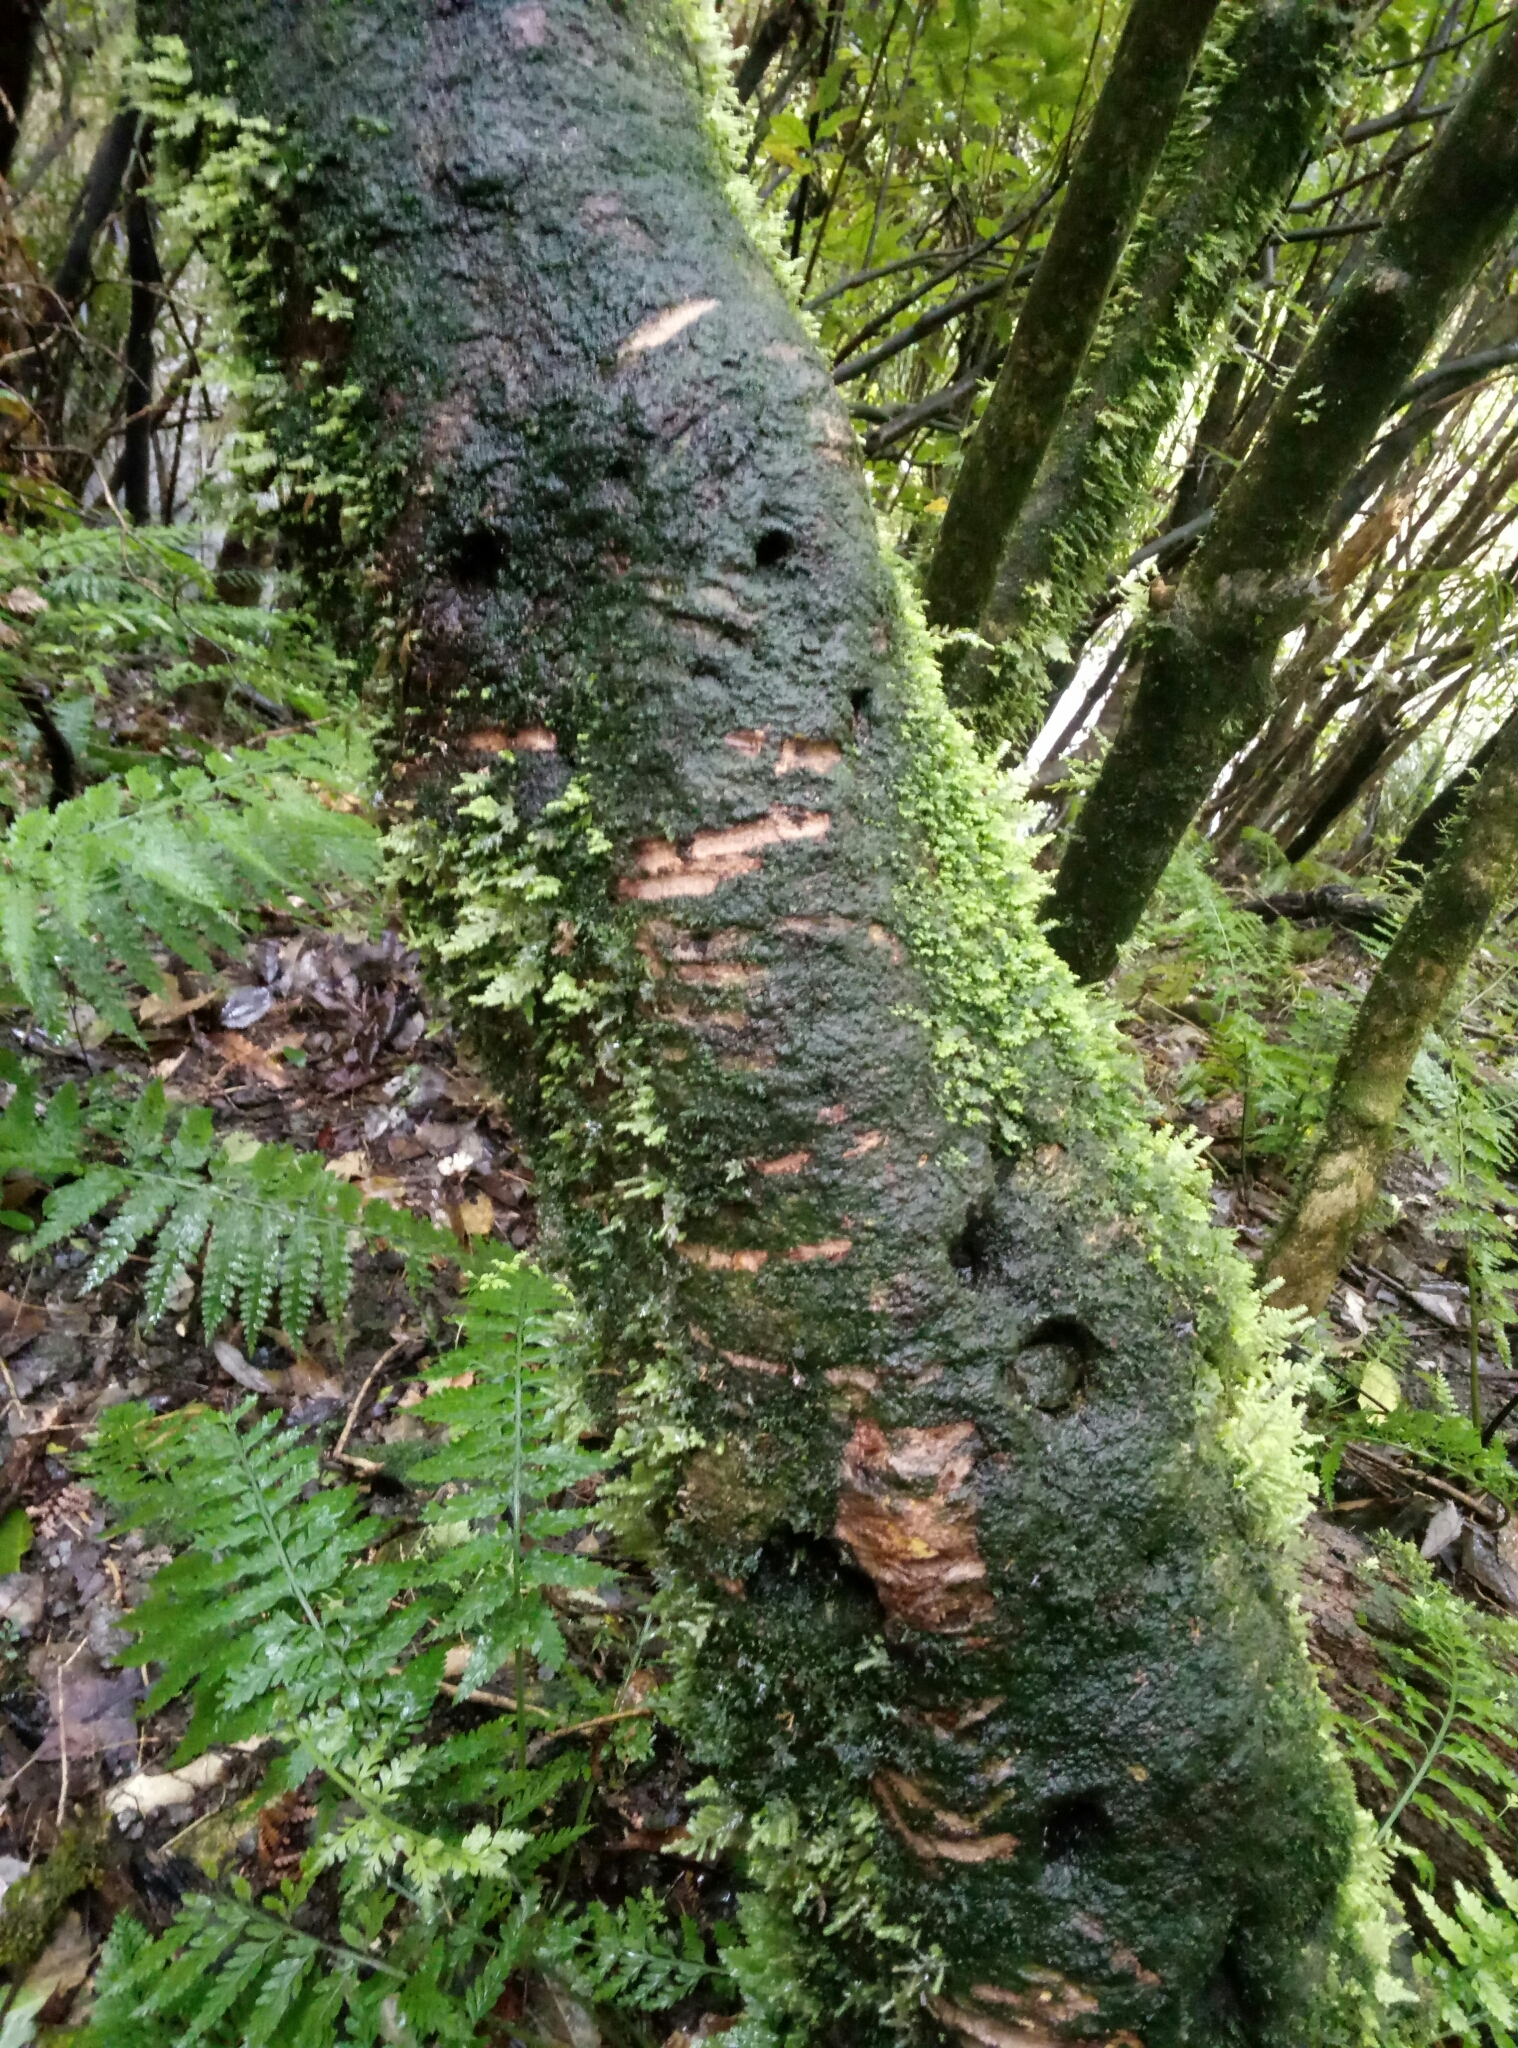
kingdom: Animalia
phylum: Chordata
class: Mammalia
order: Diprotodontia
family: Phalangeridae
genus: Trichosurus
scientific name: Trichosurus vulpecula
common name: Common brushtail
